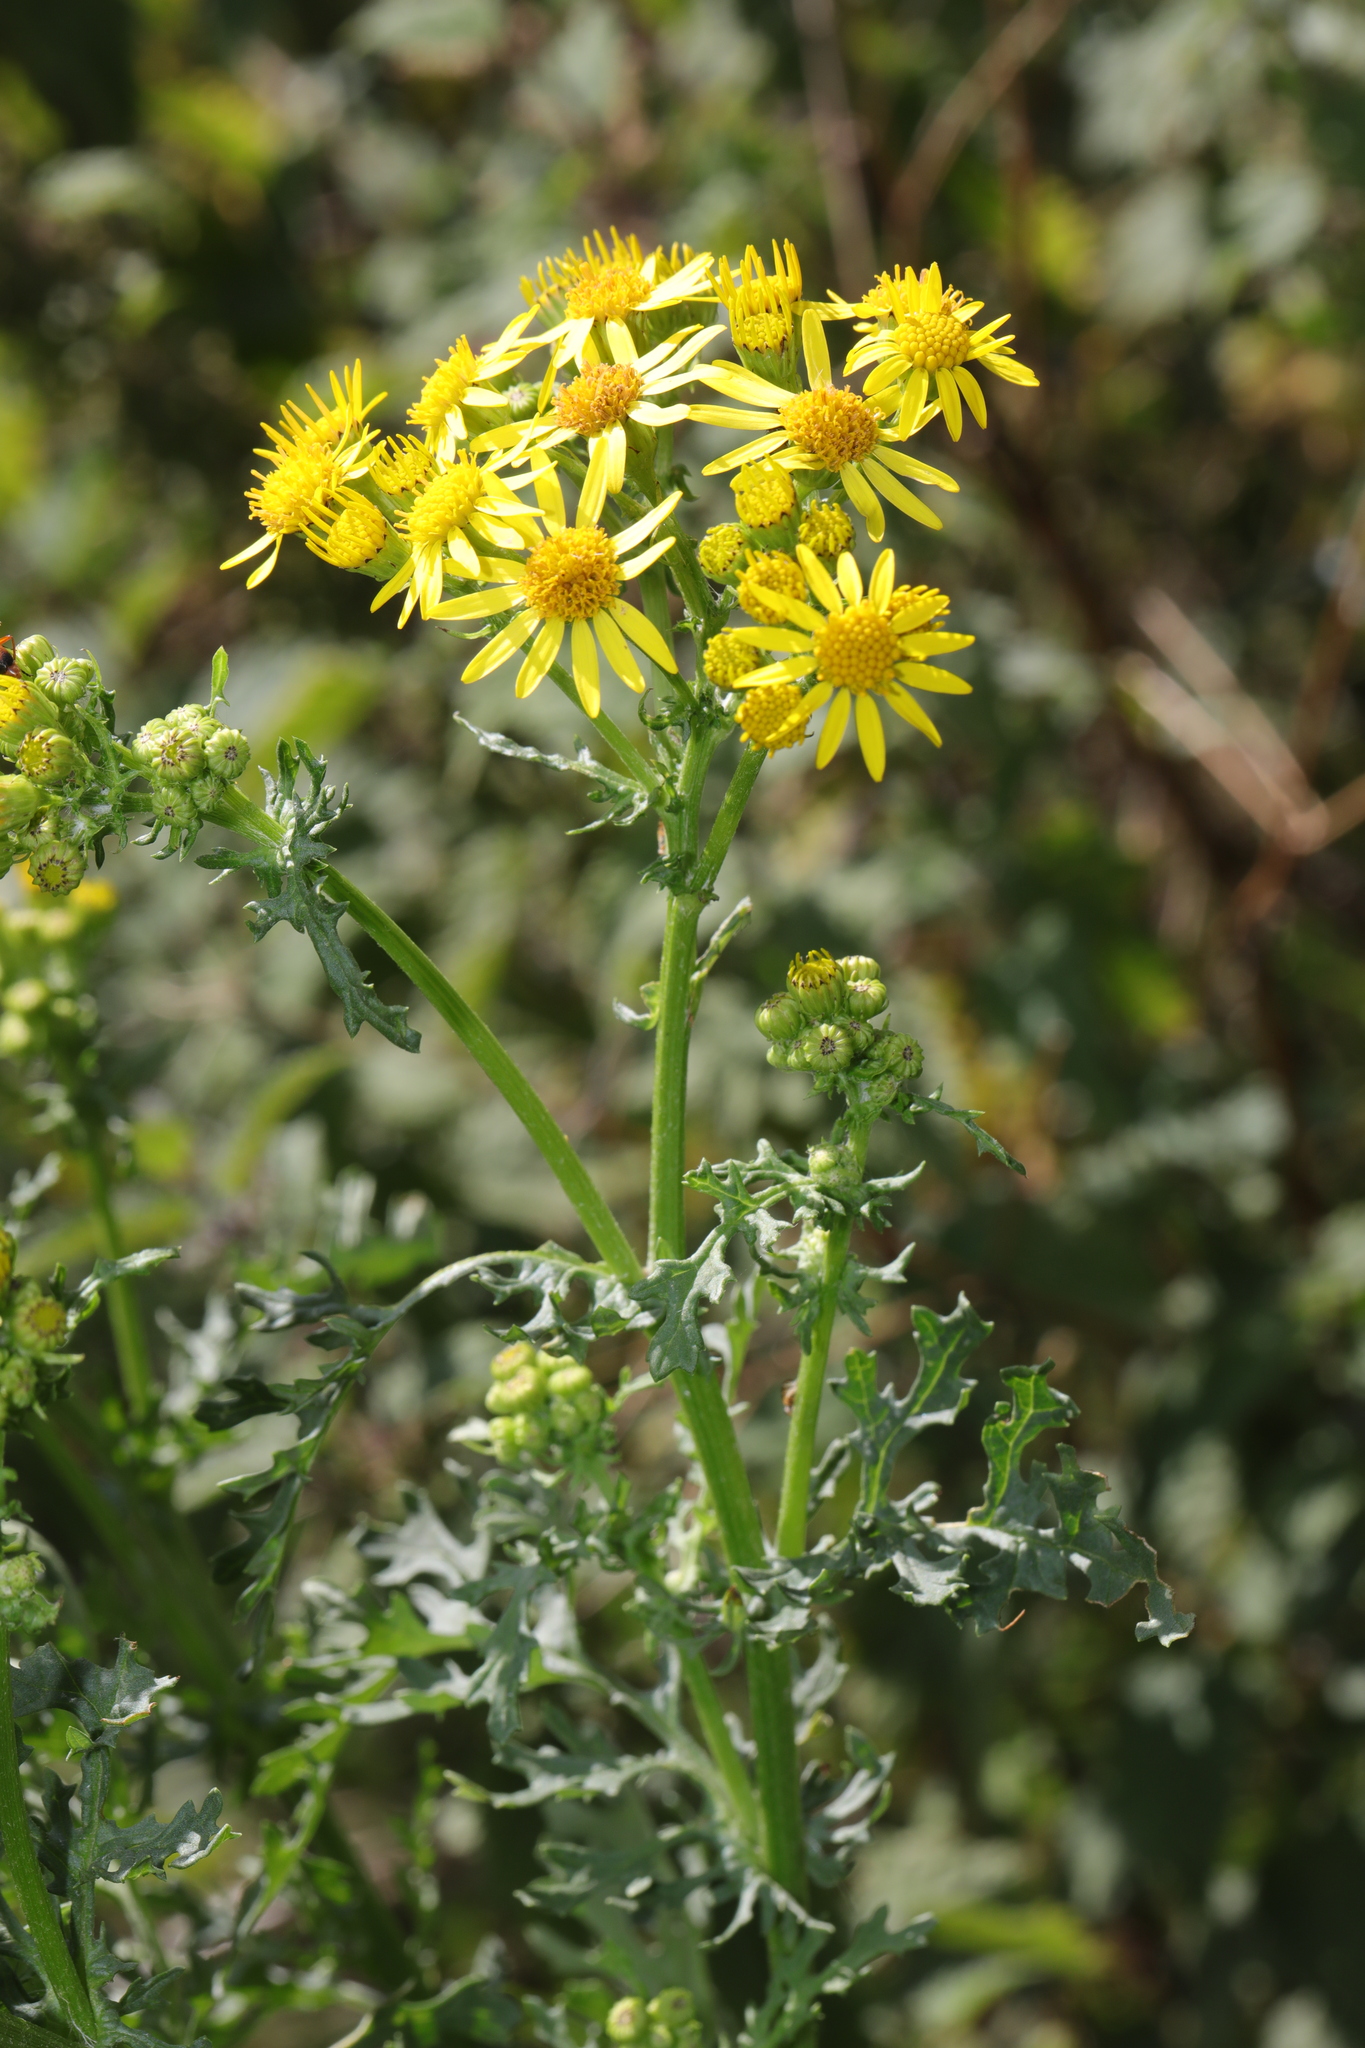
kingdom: Plantae
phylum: Tracheophyta
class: Magnoliopsida
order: Asterales
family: Asteraceae
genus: Jacobaea
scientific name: Jacobaea vulgaris
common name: Stinking willie
